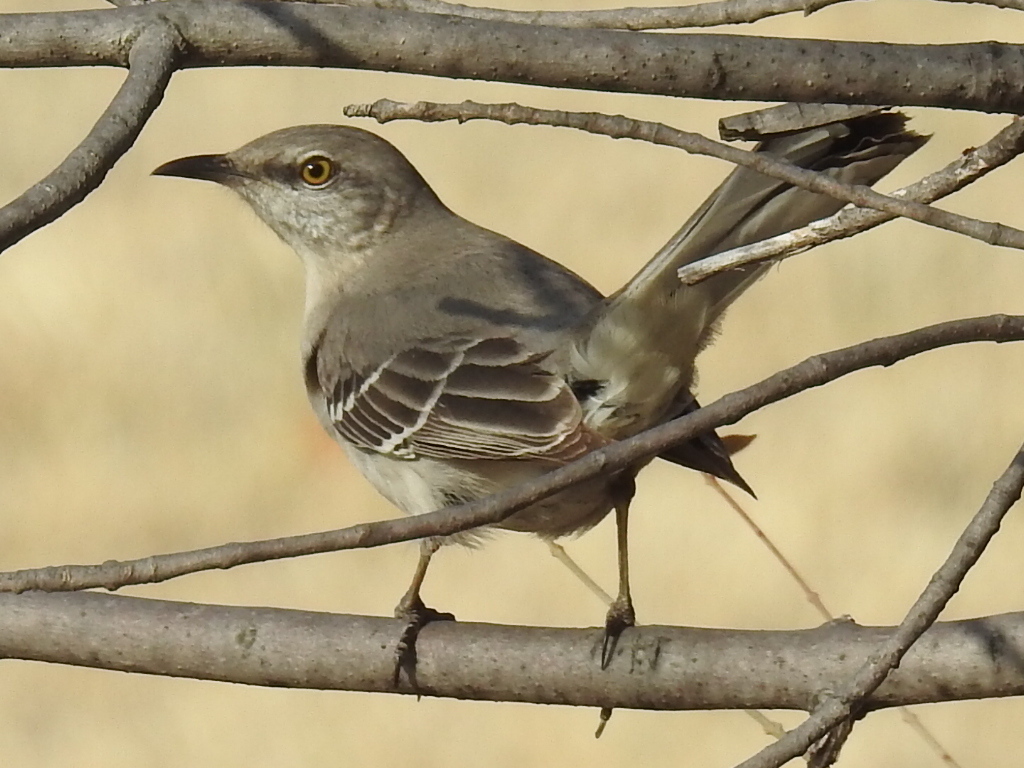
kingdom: Animalia
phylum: Chordata
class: Aves
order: Passeriformes
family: Mimidae
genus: Mimus
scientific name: Mimus polyglottos
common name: Northern mockingbird
